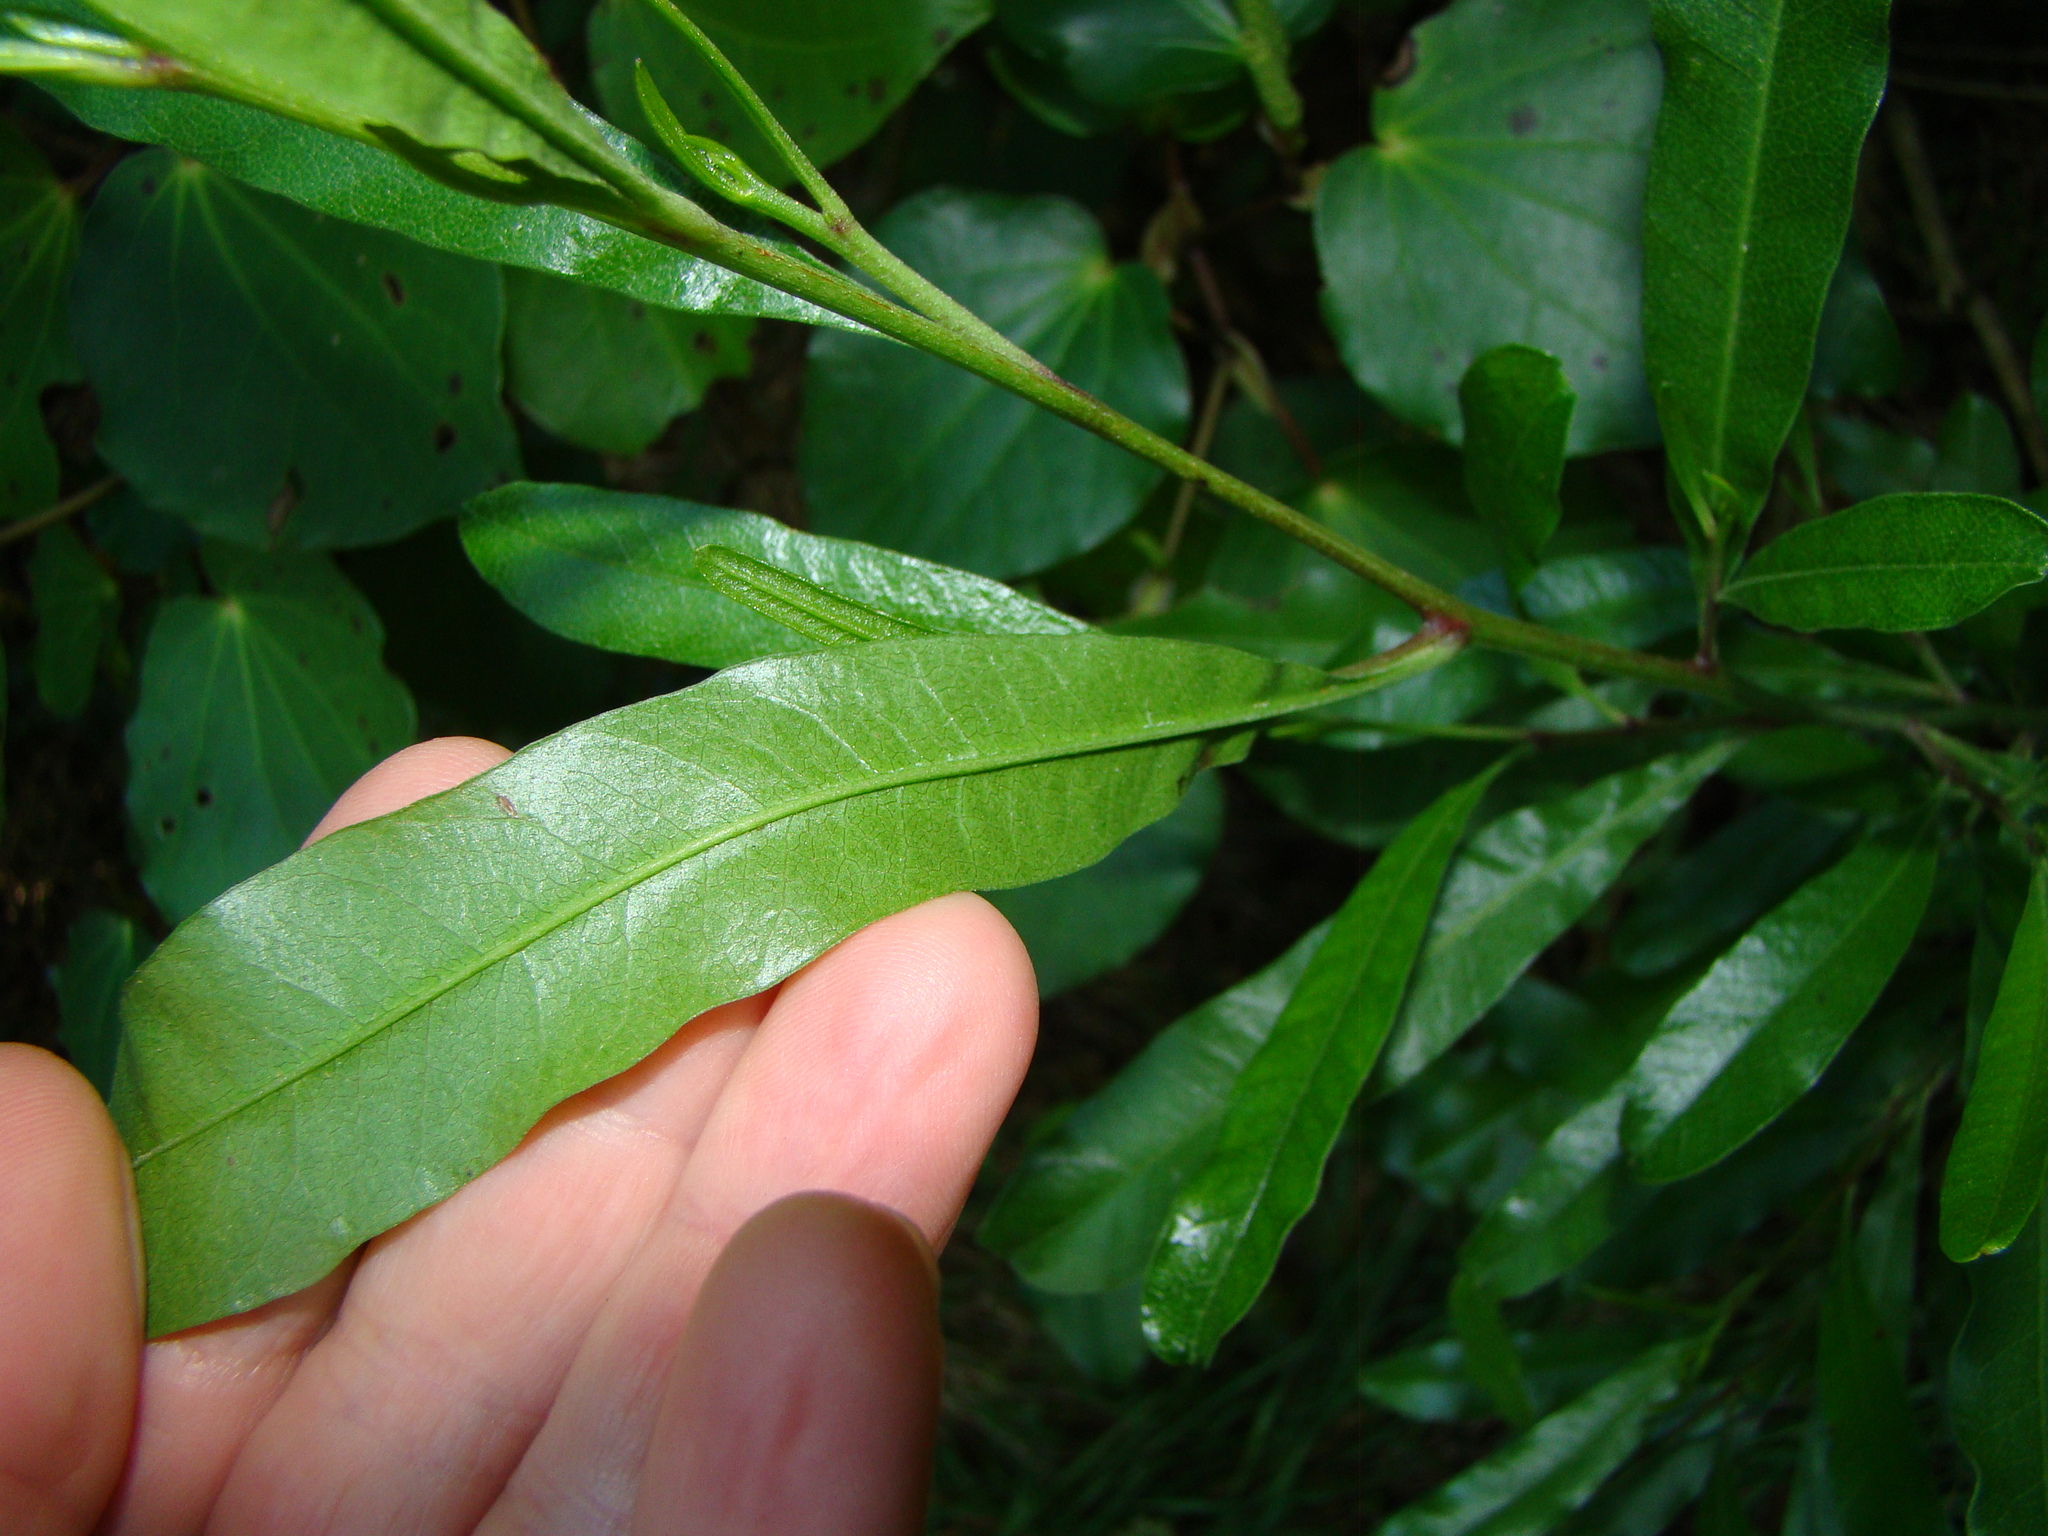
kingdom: Plantae
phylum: Tracheophyta
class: Magnoliopsida
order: Sapindales
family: Sapindaceae
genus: Dodonaea
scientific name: Dodonaea viscosa
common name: Hopbush
